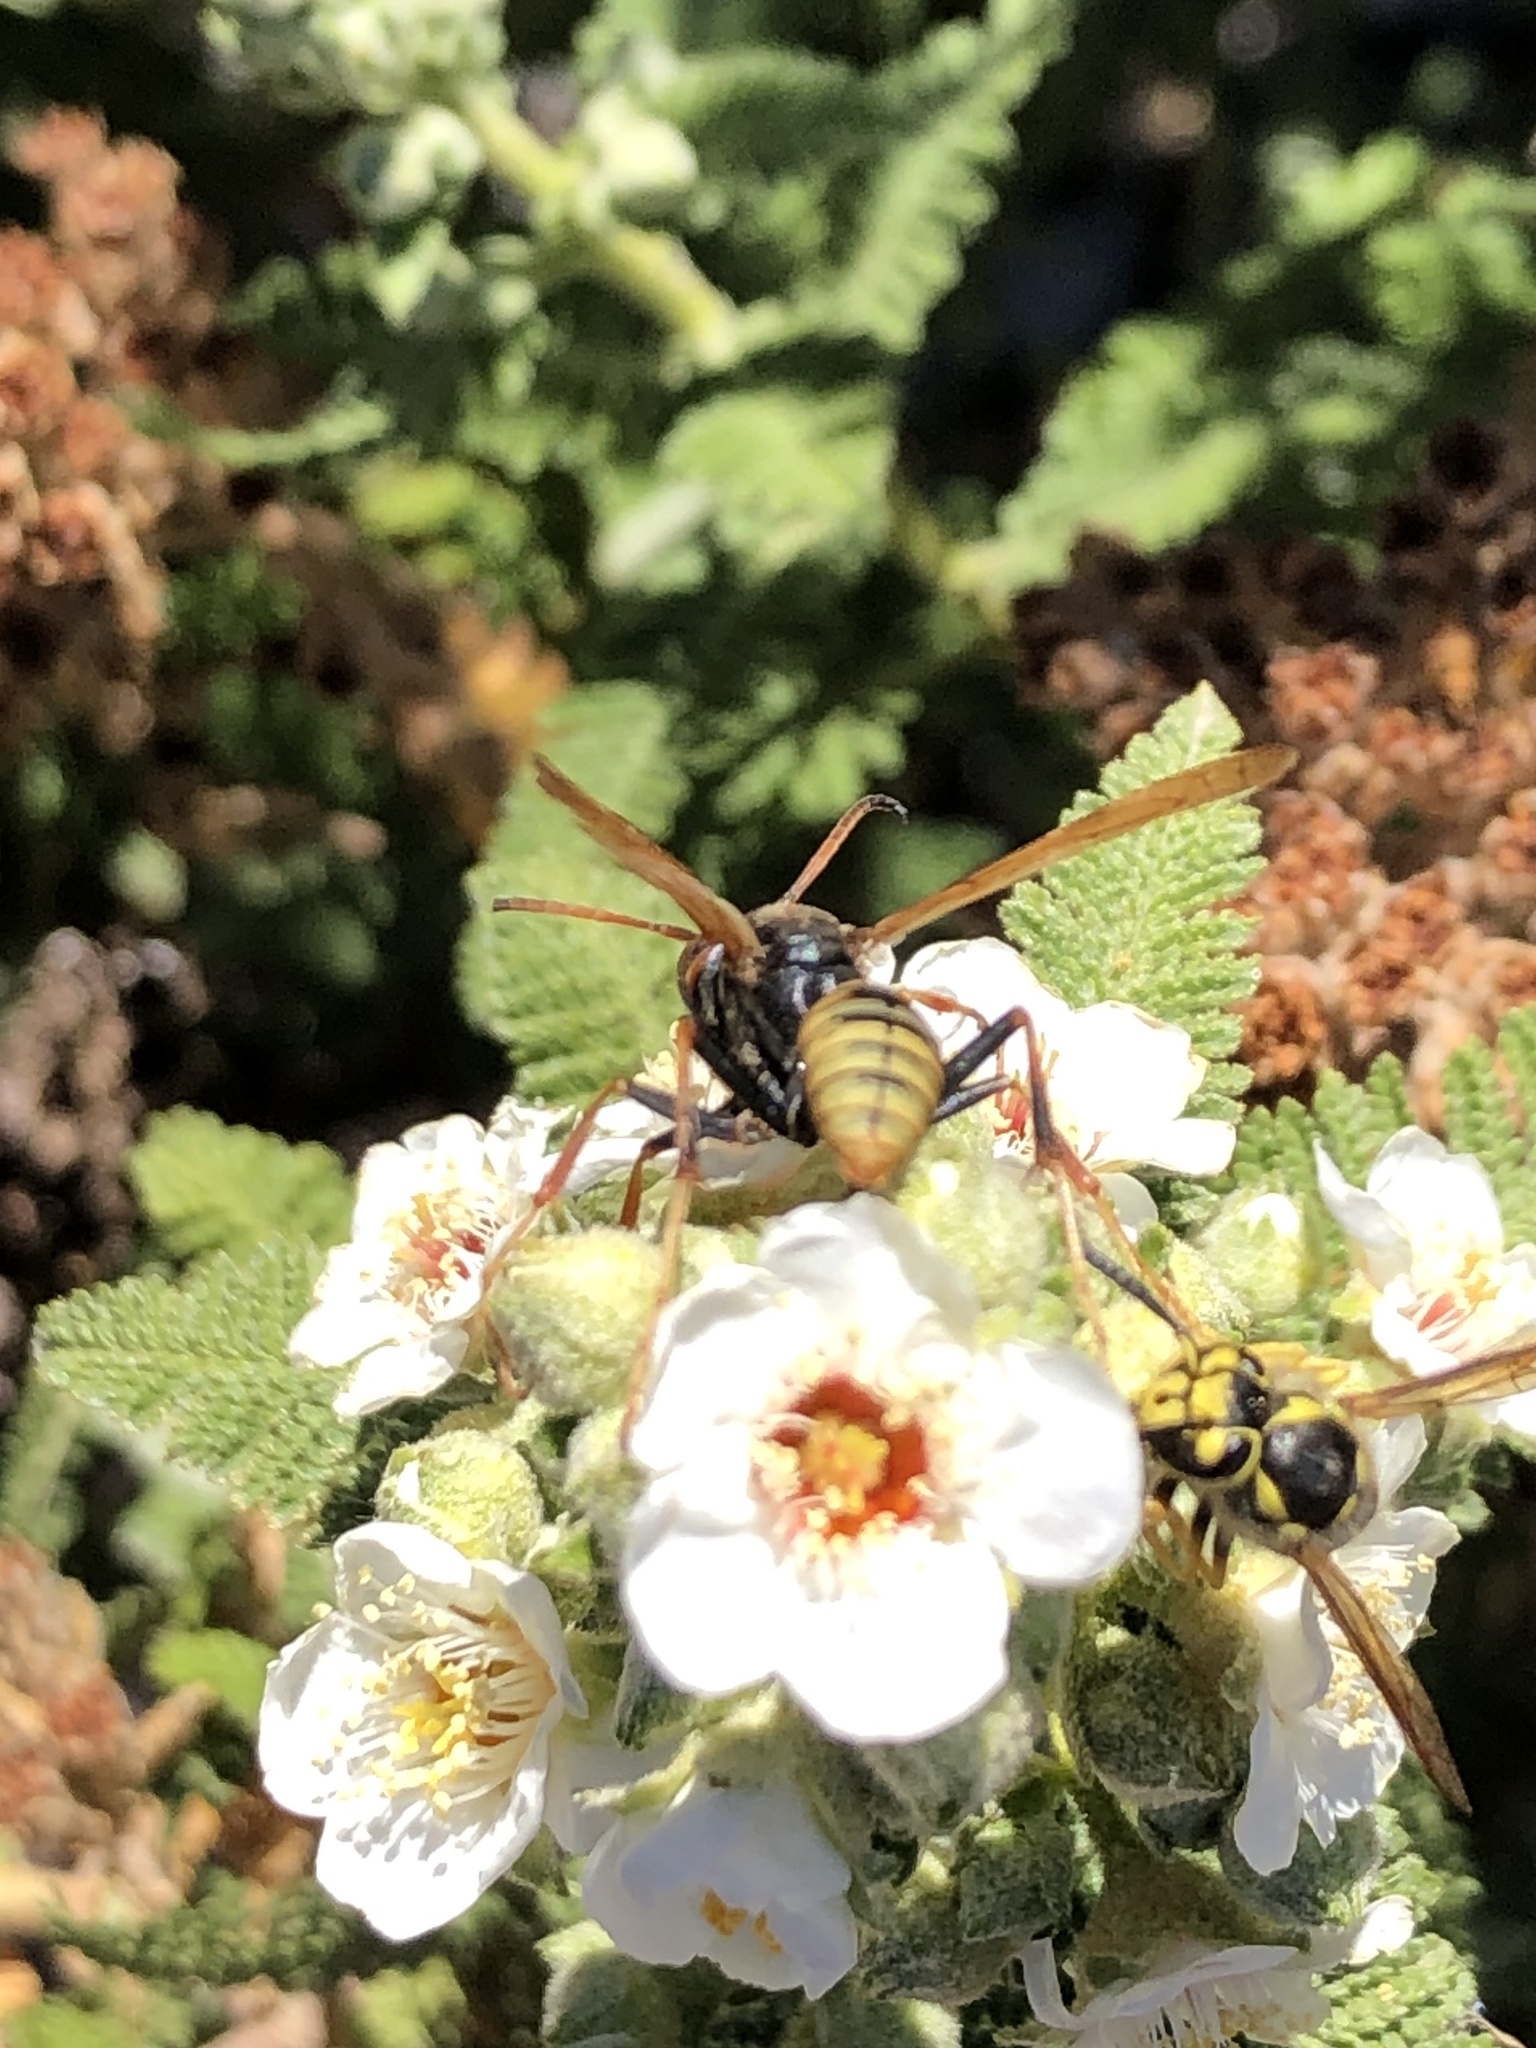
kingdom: Animalia
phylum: Arthropoda
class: Insecta
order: Hymenoptera
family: Eumenidae
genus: Polistes
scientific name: Polistes aurifer
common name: Paper wasp
